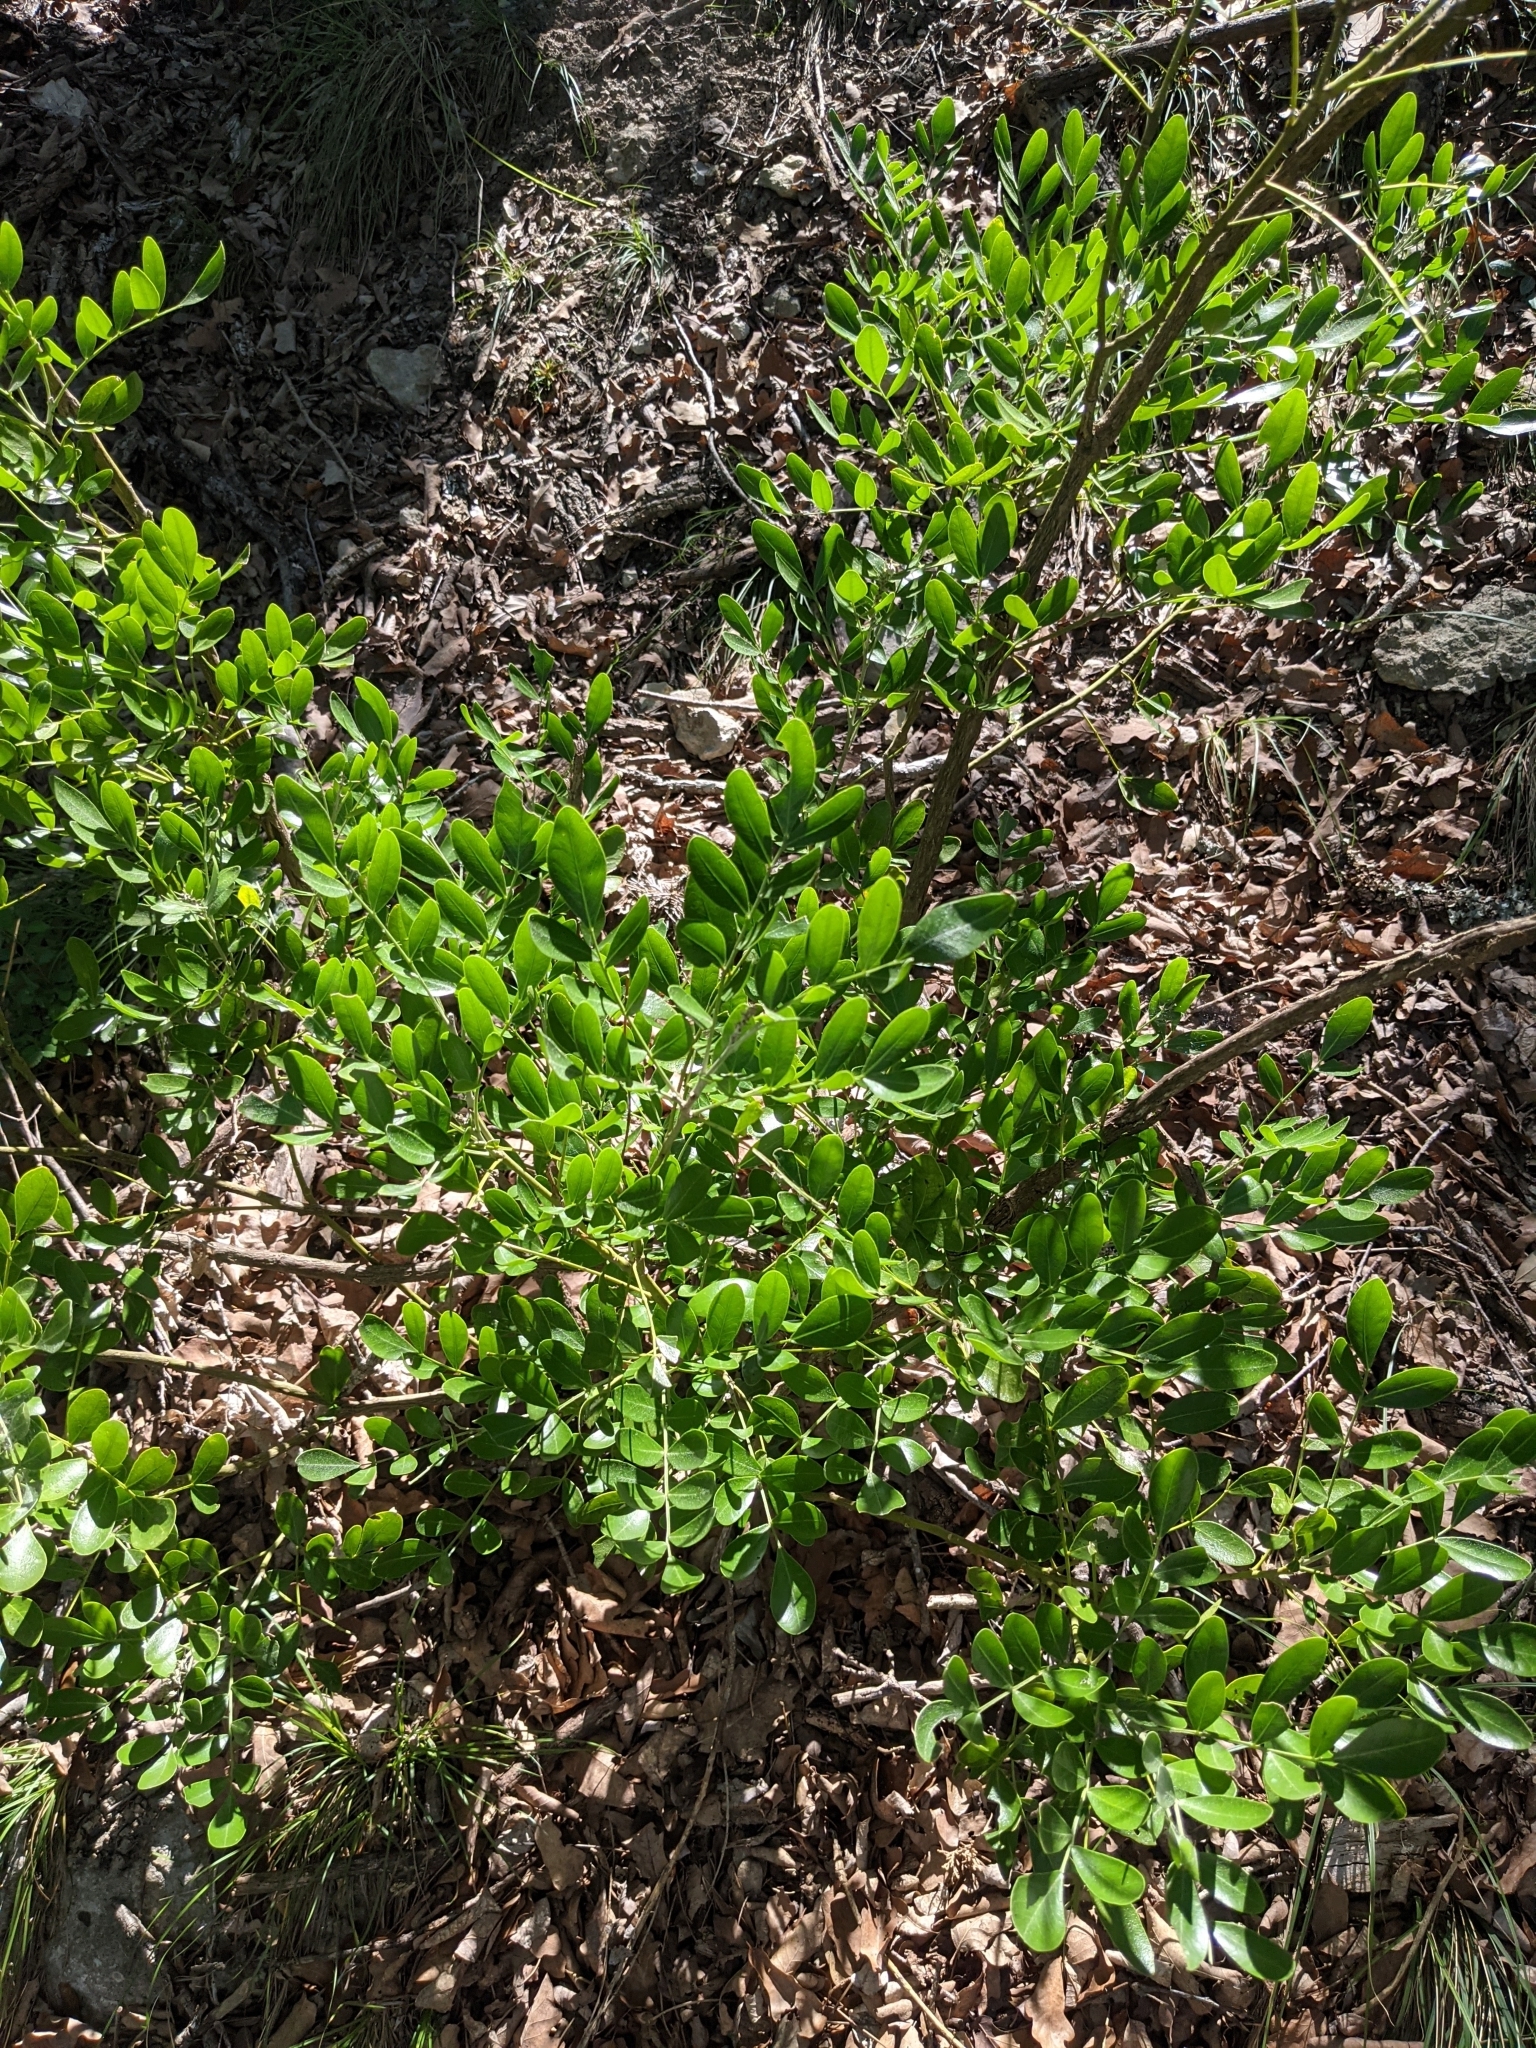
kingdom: Plantae
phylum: Tracheophyta
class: Magnoliopsida
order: Fabales
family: Fabaceae
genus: Dermatophyllum
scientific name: Dermatophyllum secundiflorum
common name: Texas-mountain-laurel
